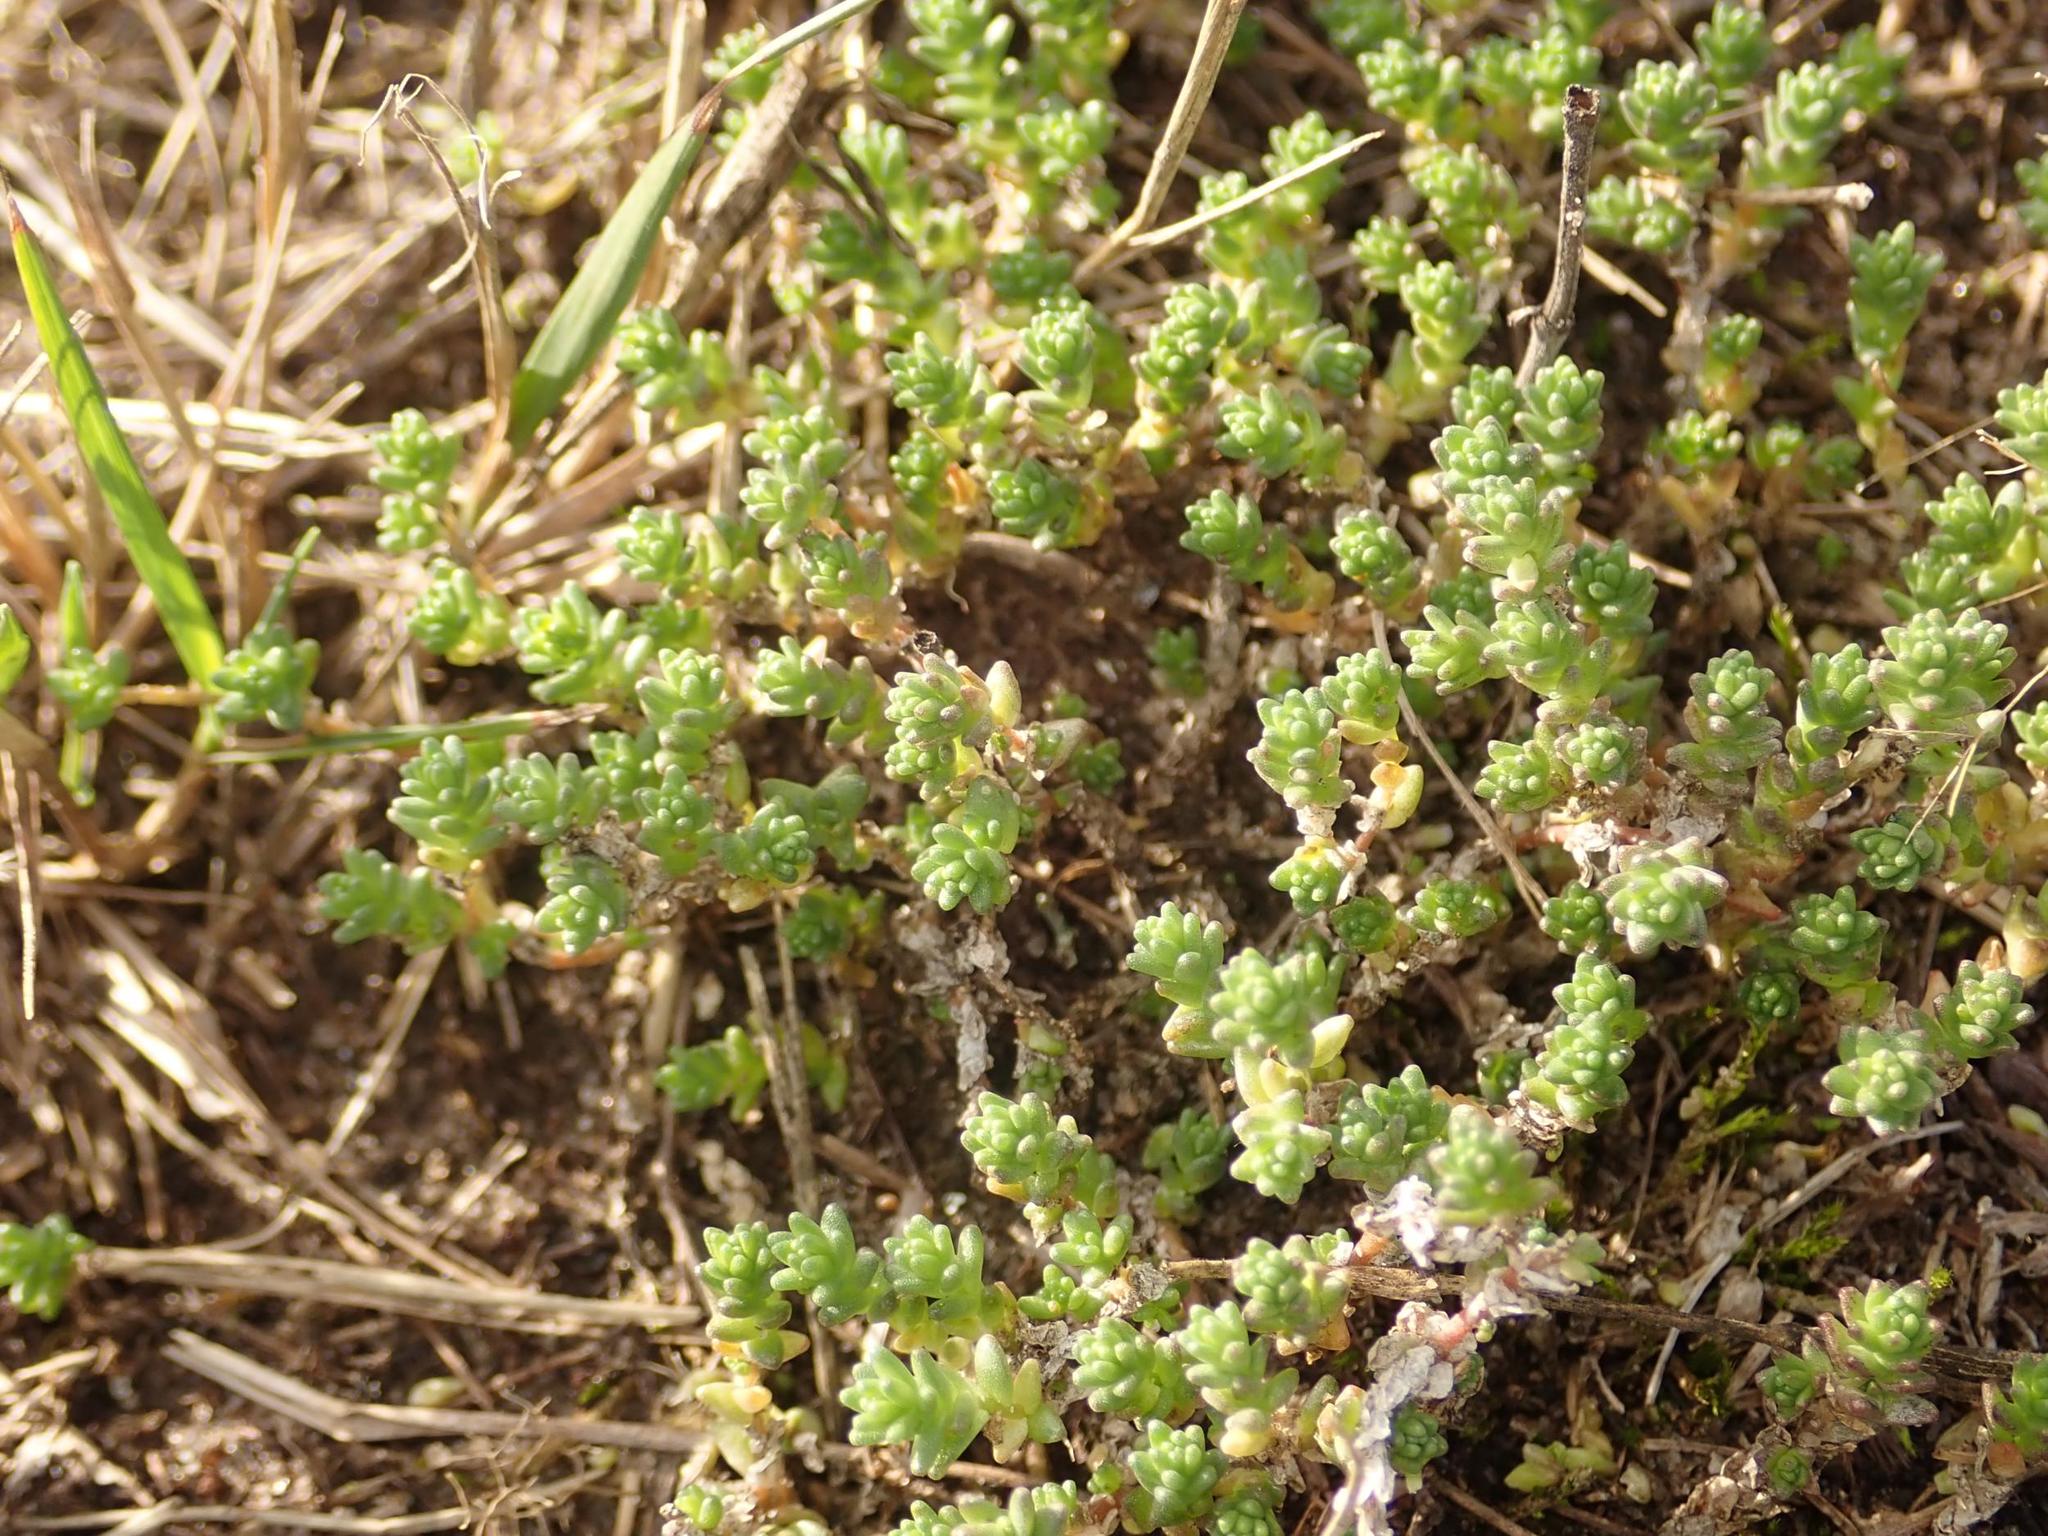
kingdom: Plantae
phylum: Tracheophyta
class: Magnoliopsida
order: Saxifragales
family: Crassulaceae
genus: Sedum
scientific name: Sedum acre
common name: Biting stonecrop
